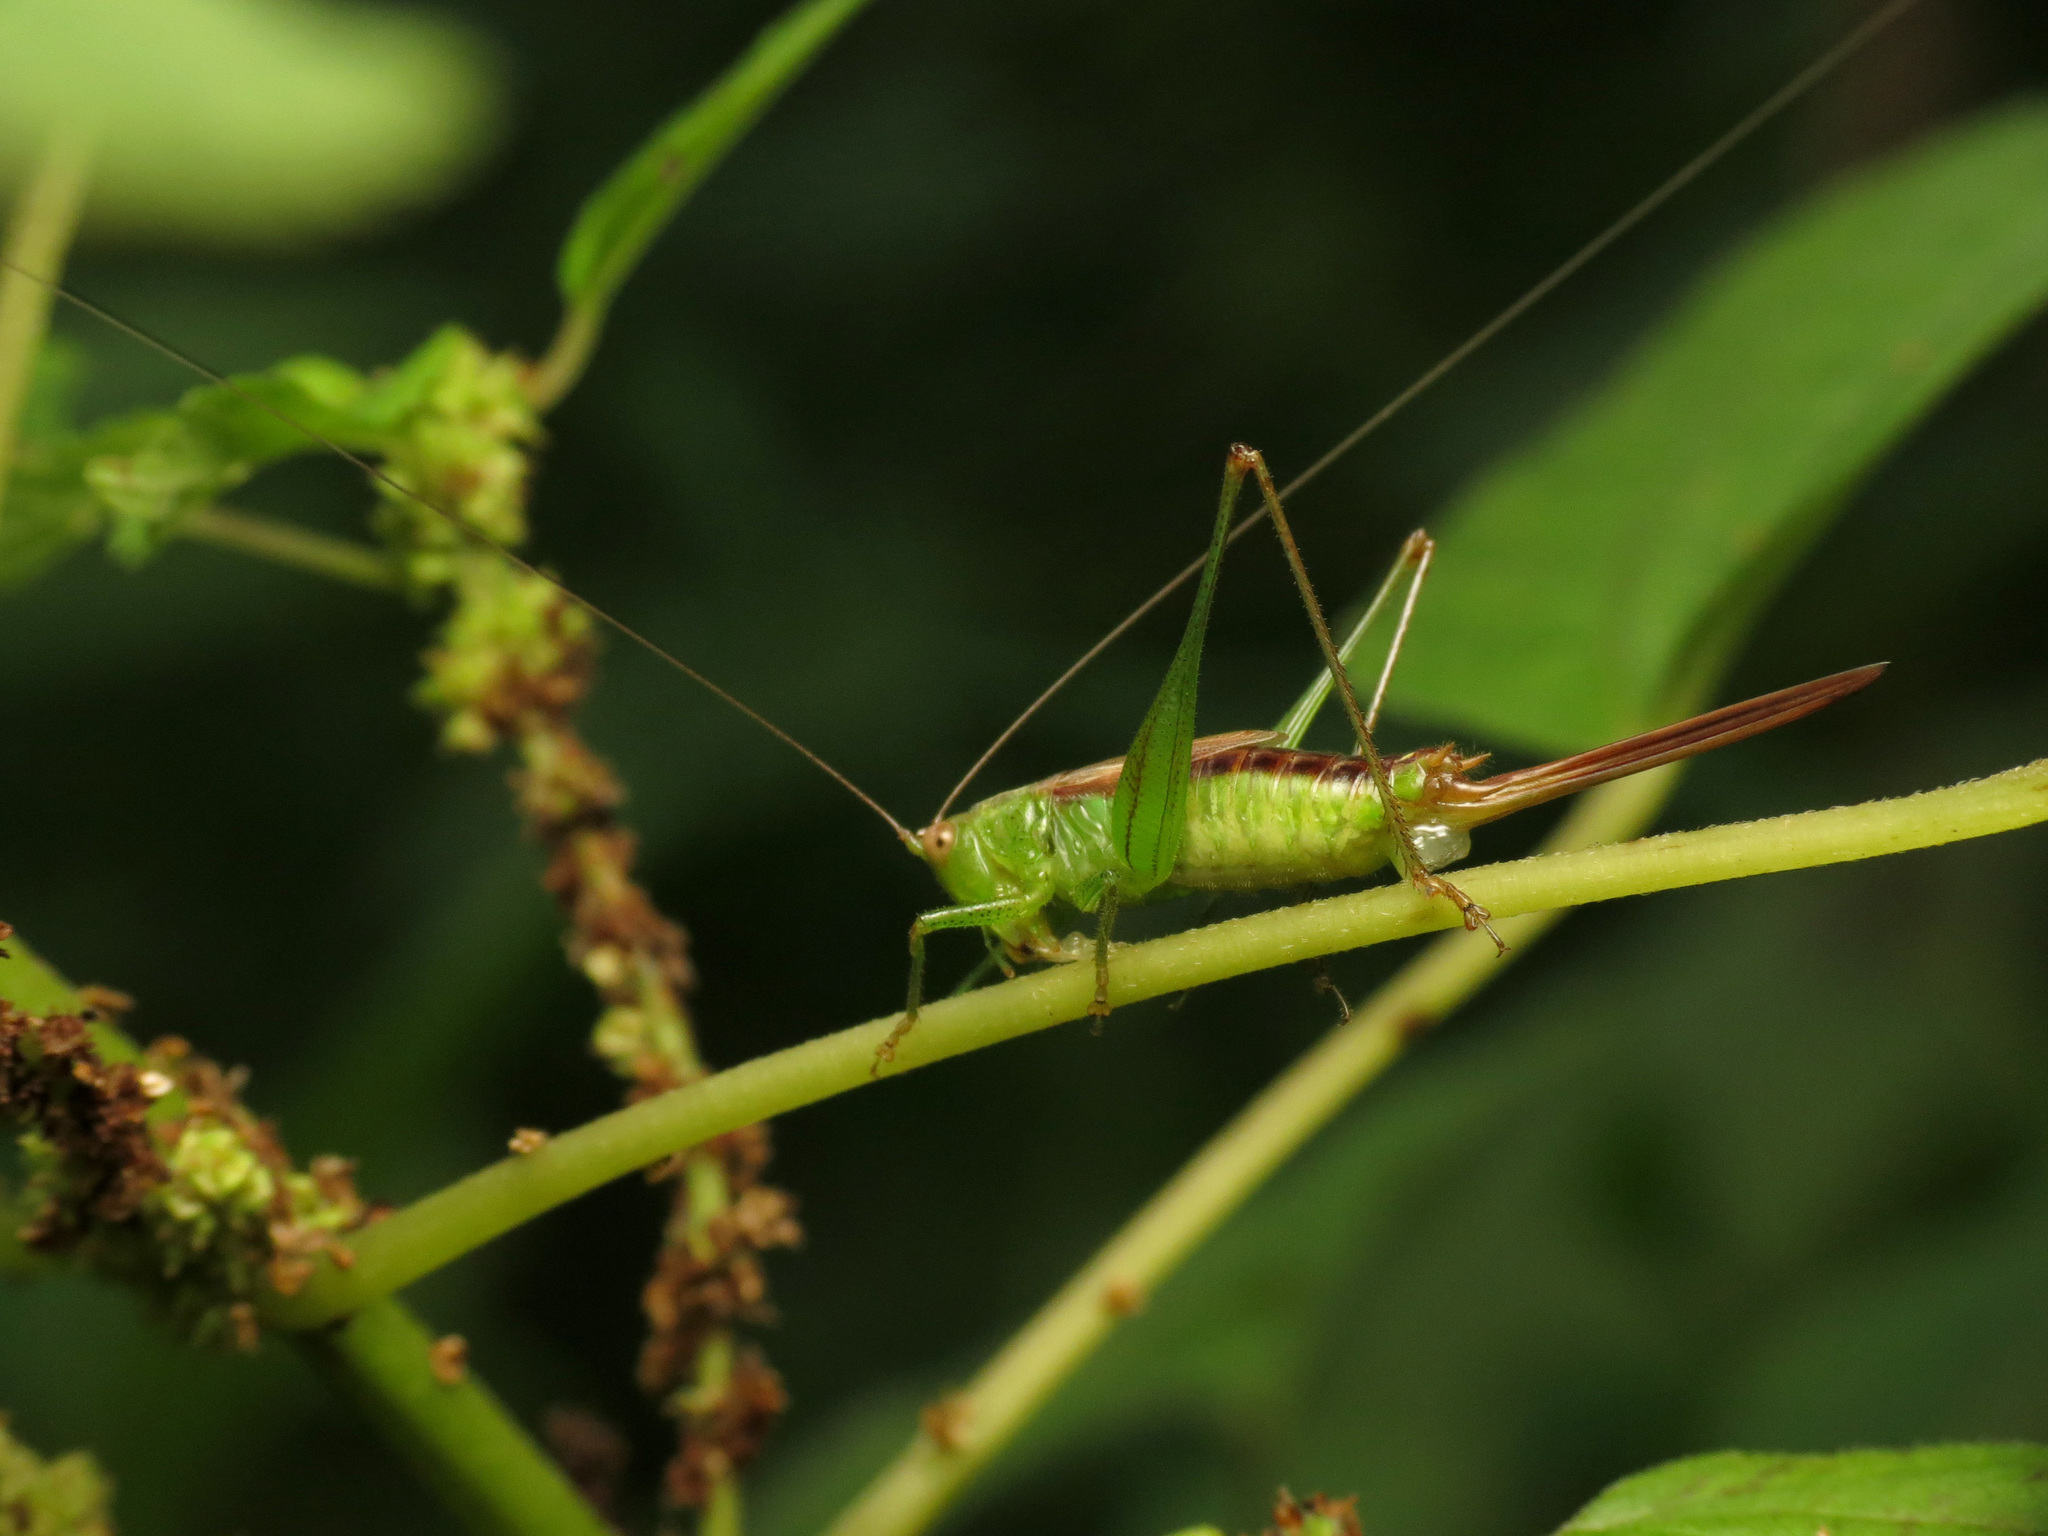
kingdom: Animalia
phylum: Arthropoda
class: Insecta
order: Orthoptera
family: Tettigoniidae
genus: Conocephalus
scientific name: Conocephalus brevipennis
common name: Short-winged meadow katydid
